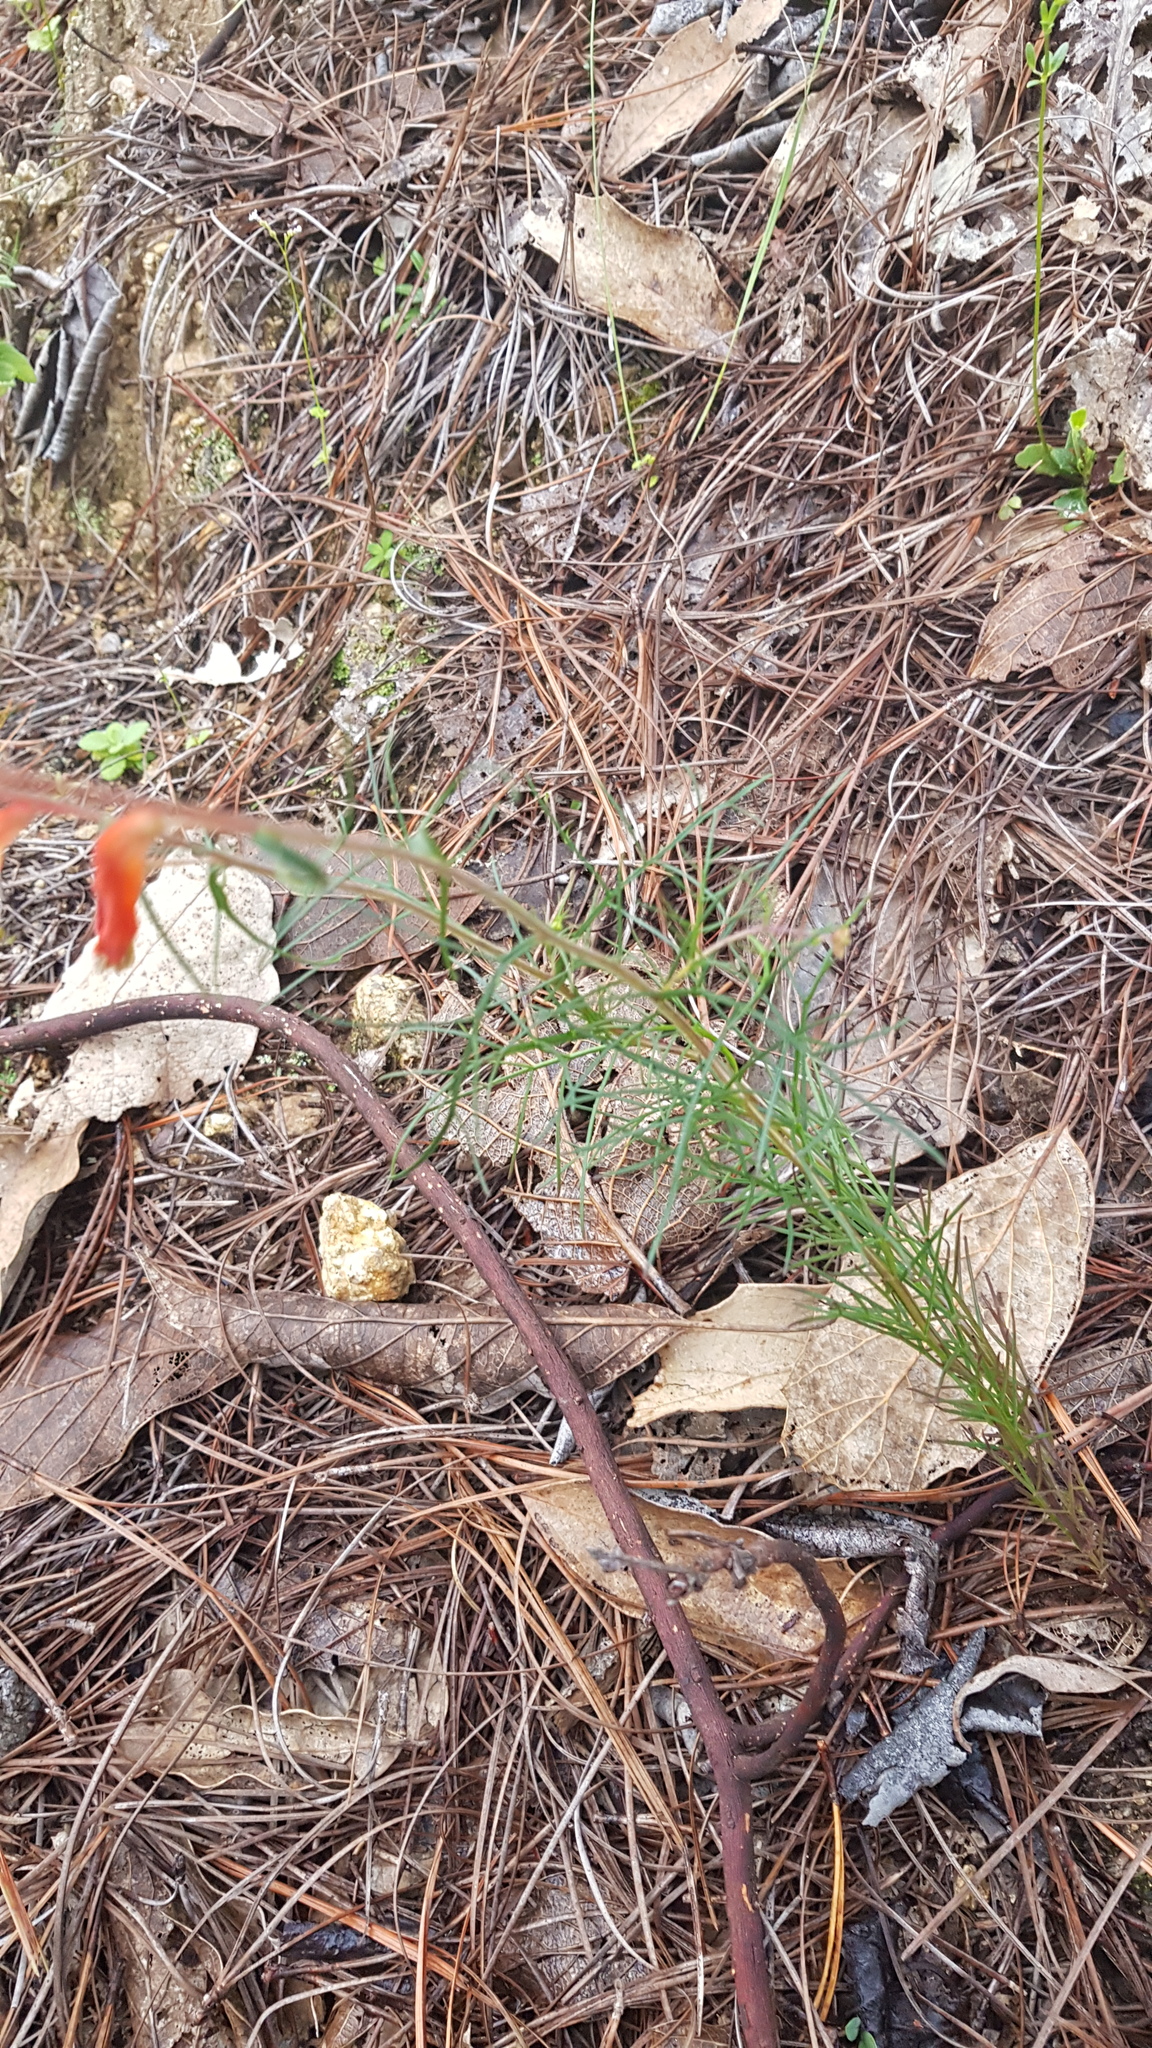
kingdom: Plantae
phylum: Tracheophyta
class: Magnoliopsida
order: Lamiales
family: Orobanchaceae
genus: Castilleja
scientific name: Castilleja tenuifolia
